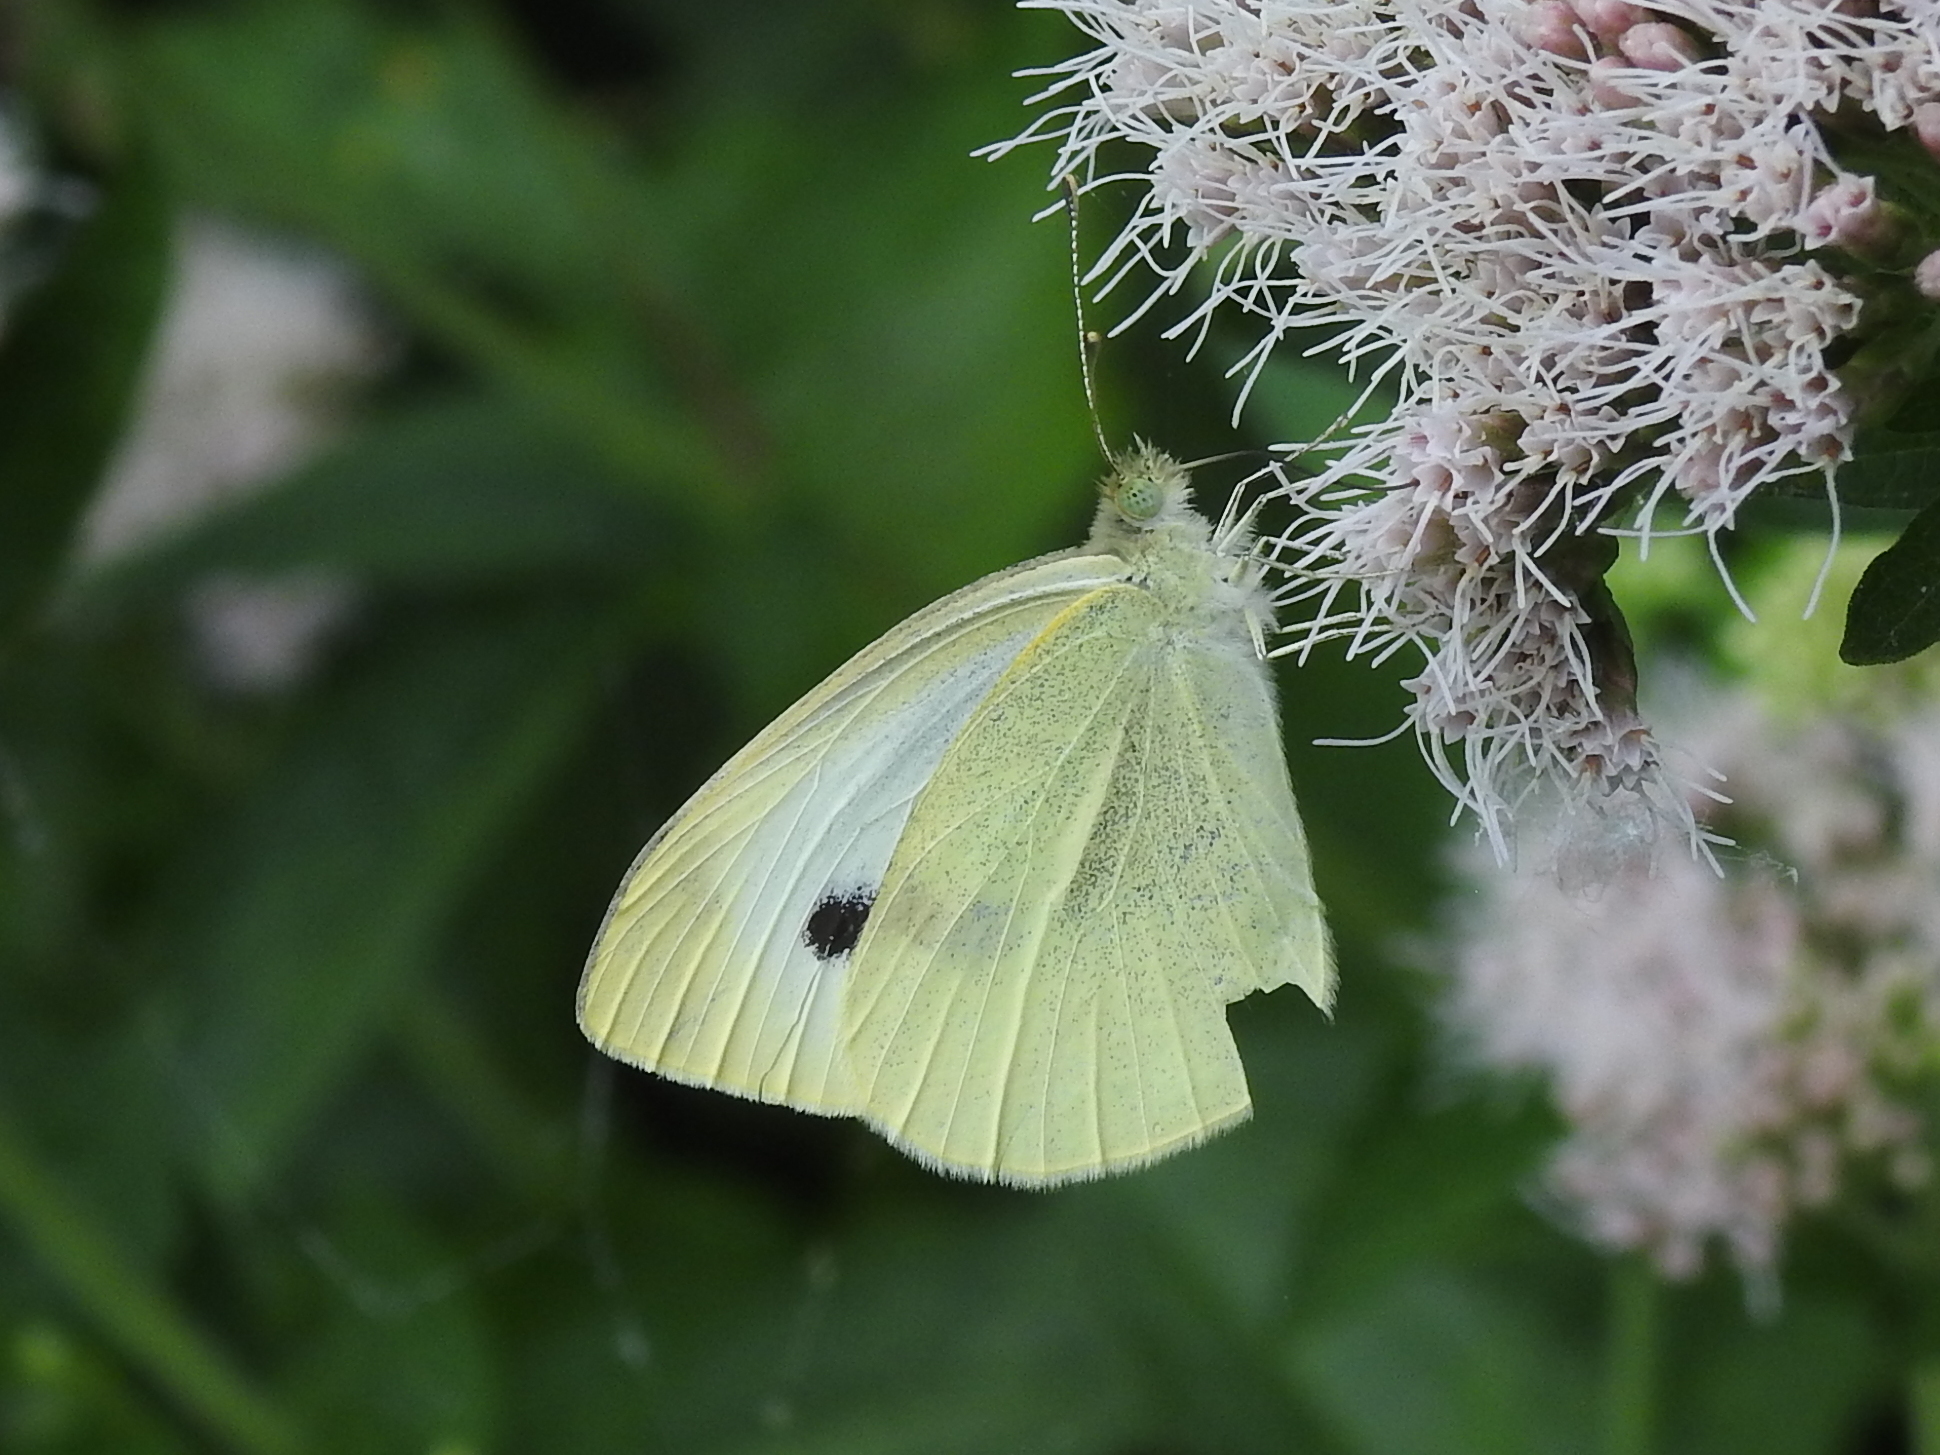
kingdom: Animalia
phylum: Arthropoda
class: Insecta
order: Lepidoptera
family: Pieridae
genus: Pieris
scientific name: Pieris rapae
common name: Small white
